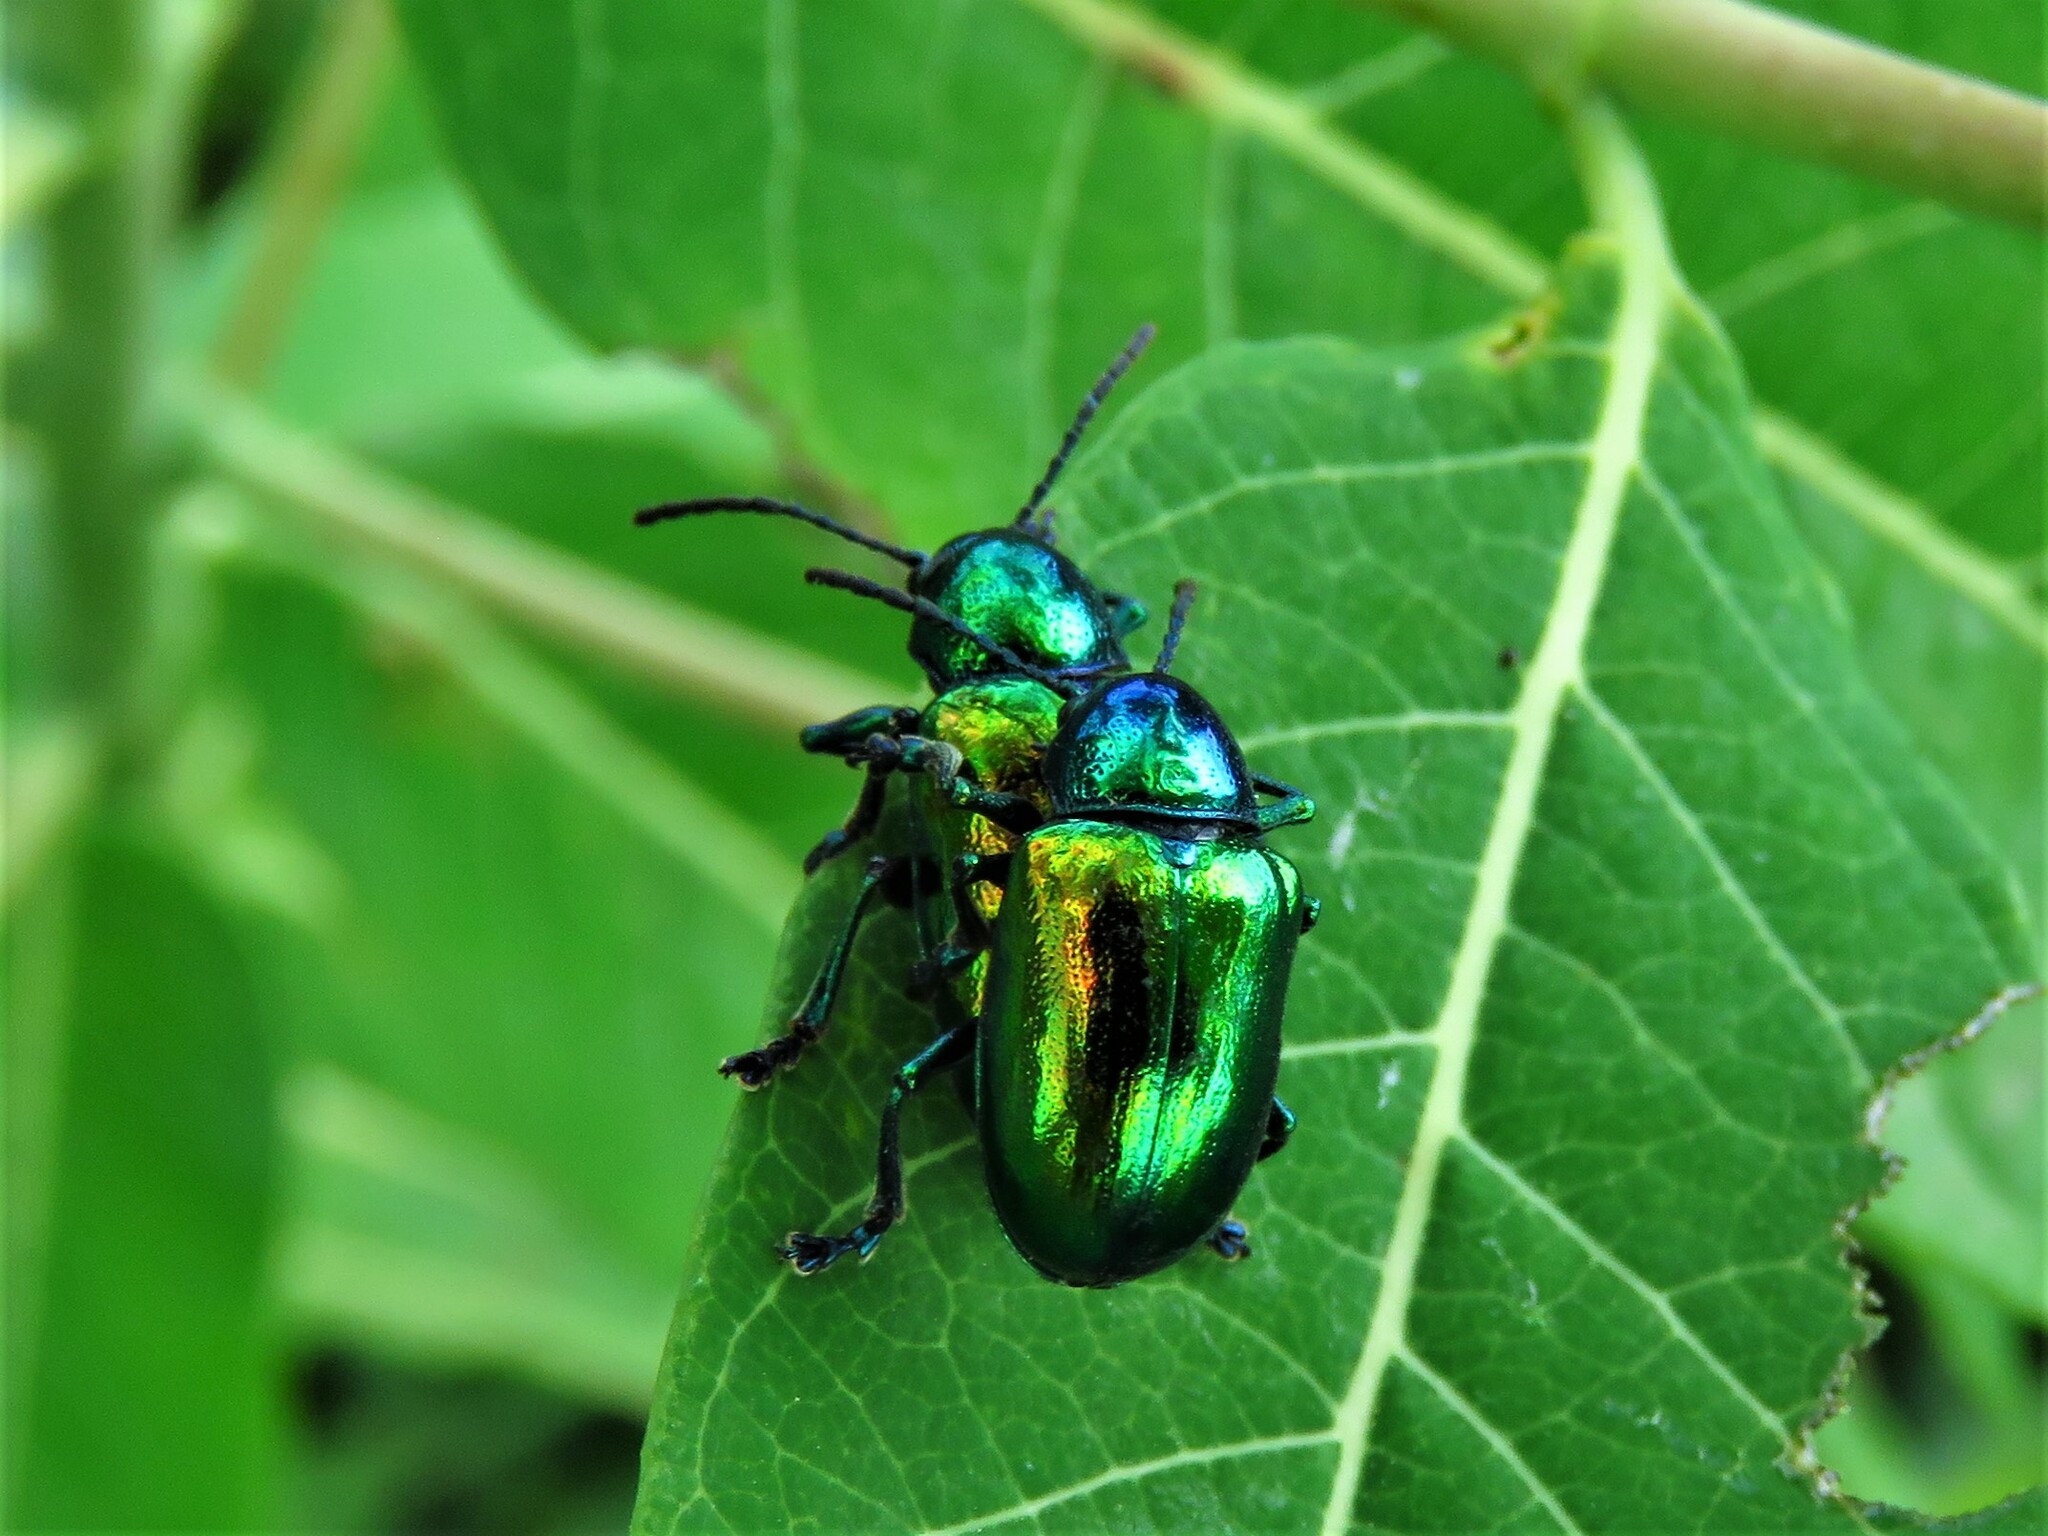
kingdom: Animalia
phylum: Arthropoda
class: Insecta
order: Coleoptera
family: Chrysomelidae
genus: Chrysochus
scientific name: Chrysochus auratus
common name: Dogbane leaf beetle
